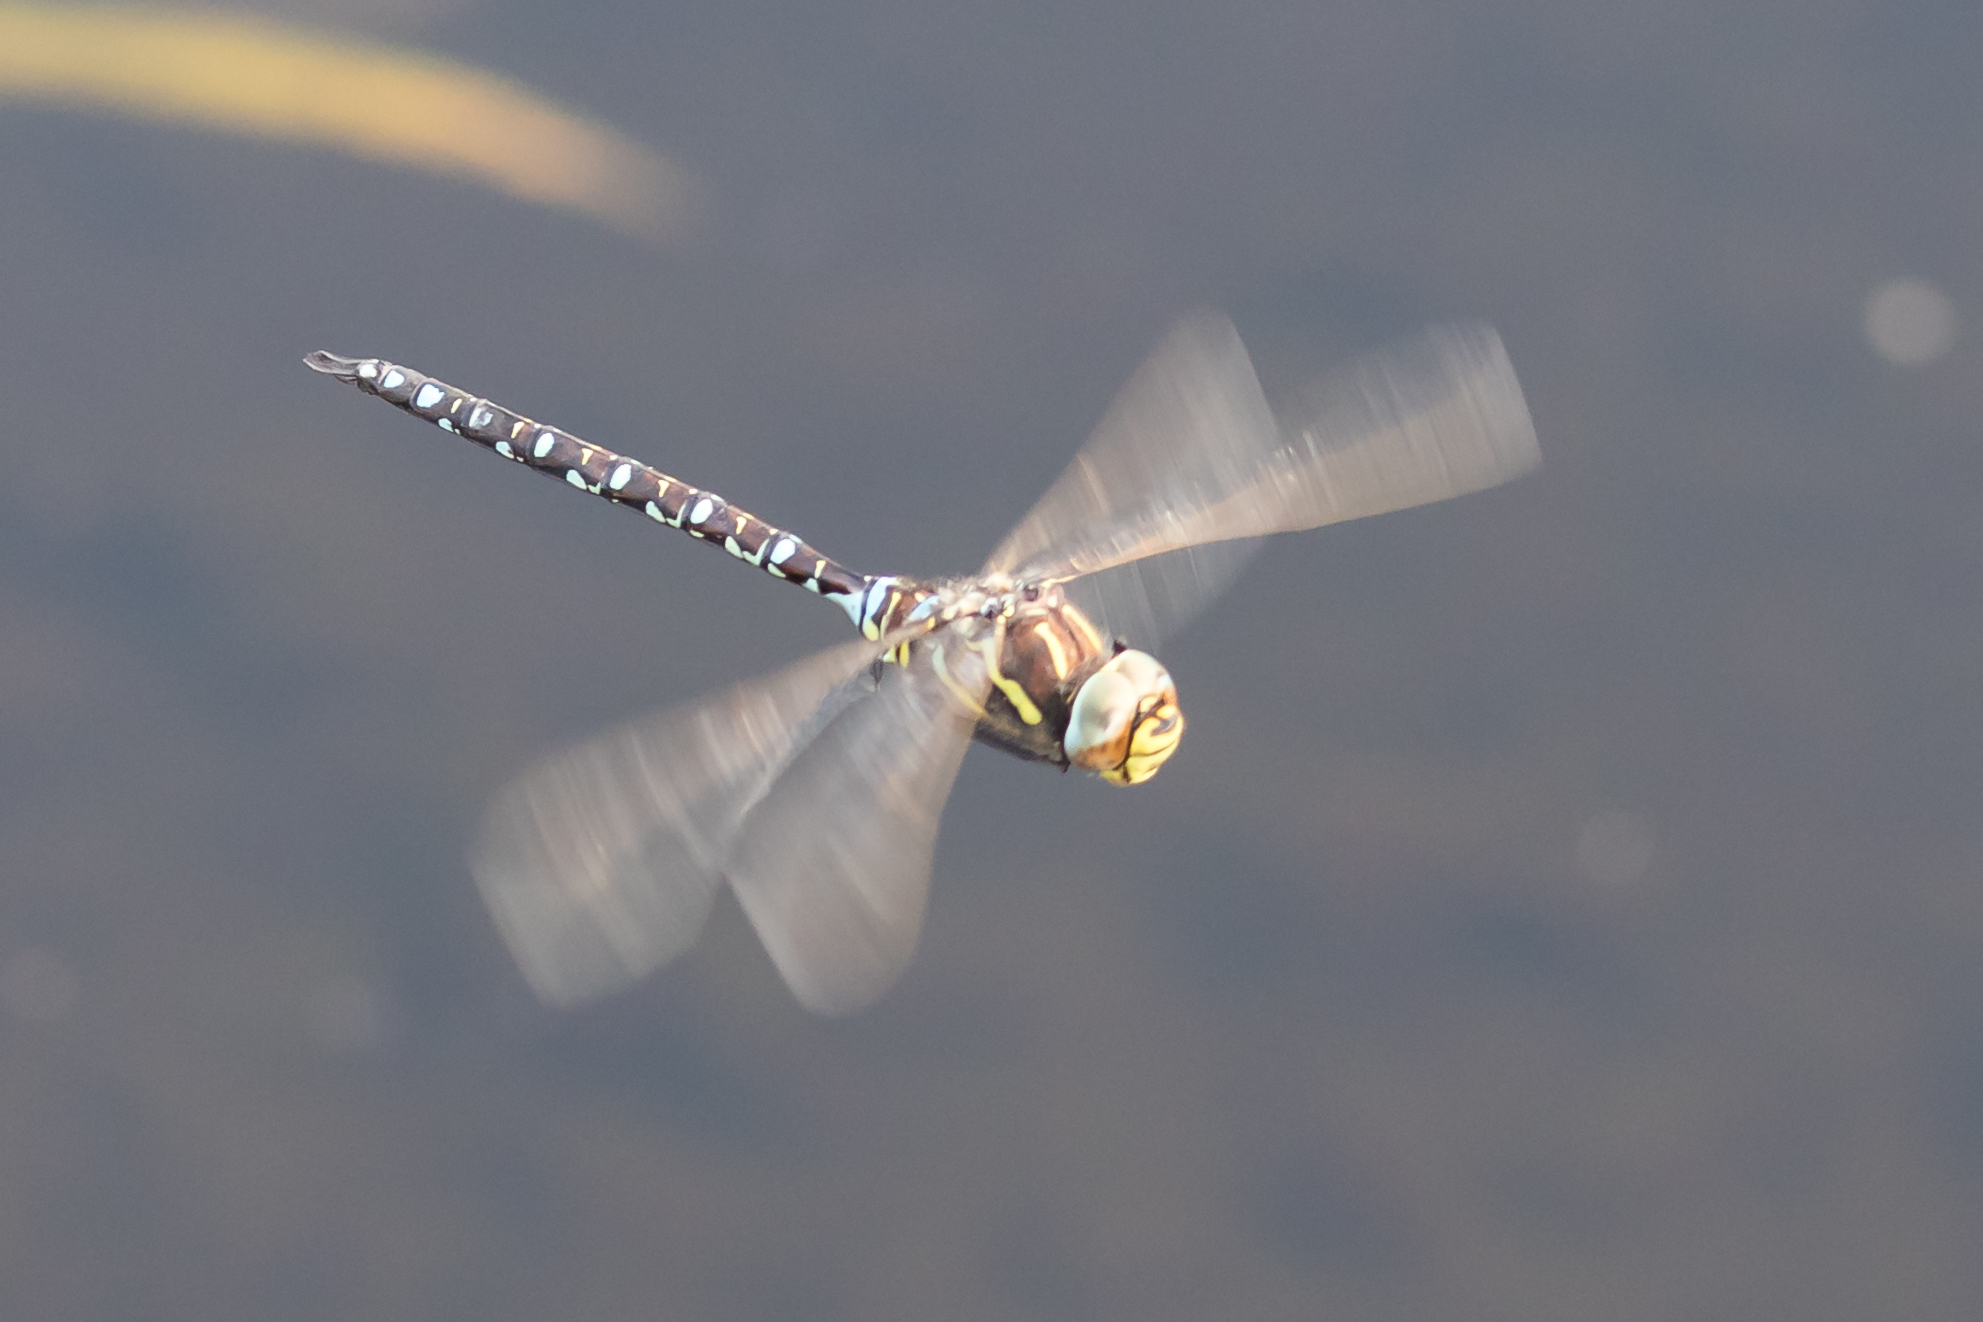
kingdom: Animalia
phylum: Arthropoda
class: Insecta
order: Odonata
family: Aeshnidae
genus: Aeshna
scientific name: Aeshna juncea
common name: Moorland hawker
